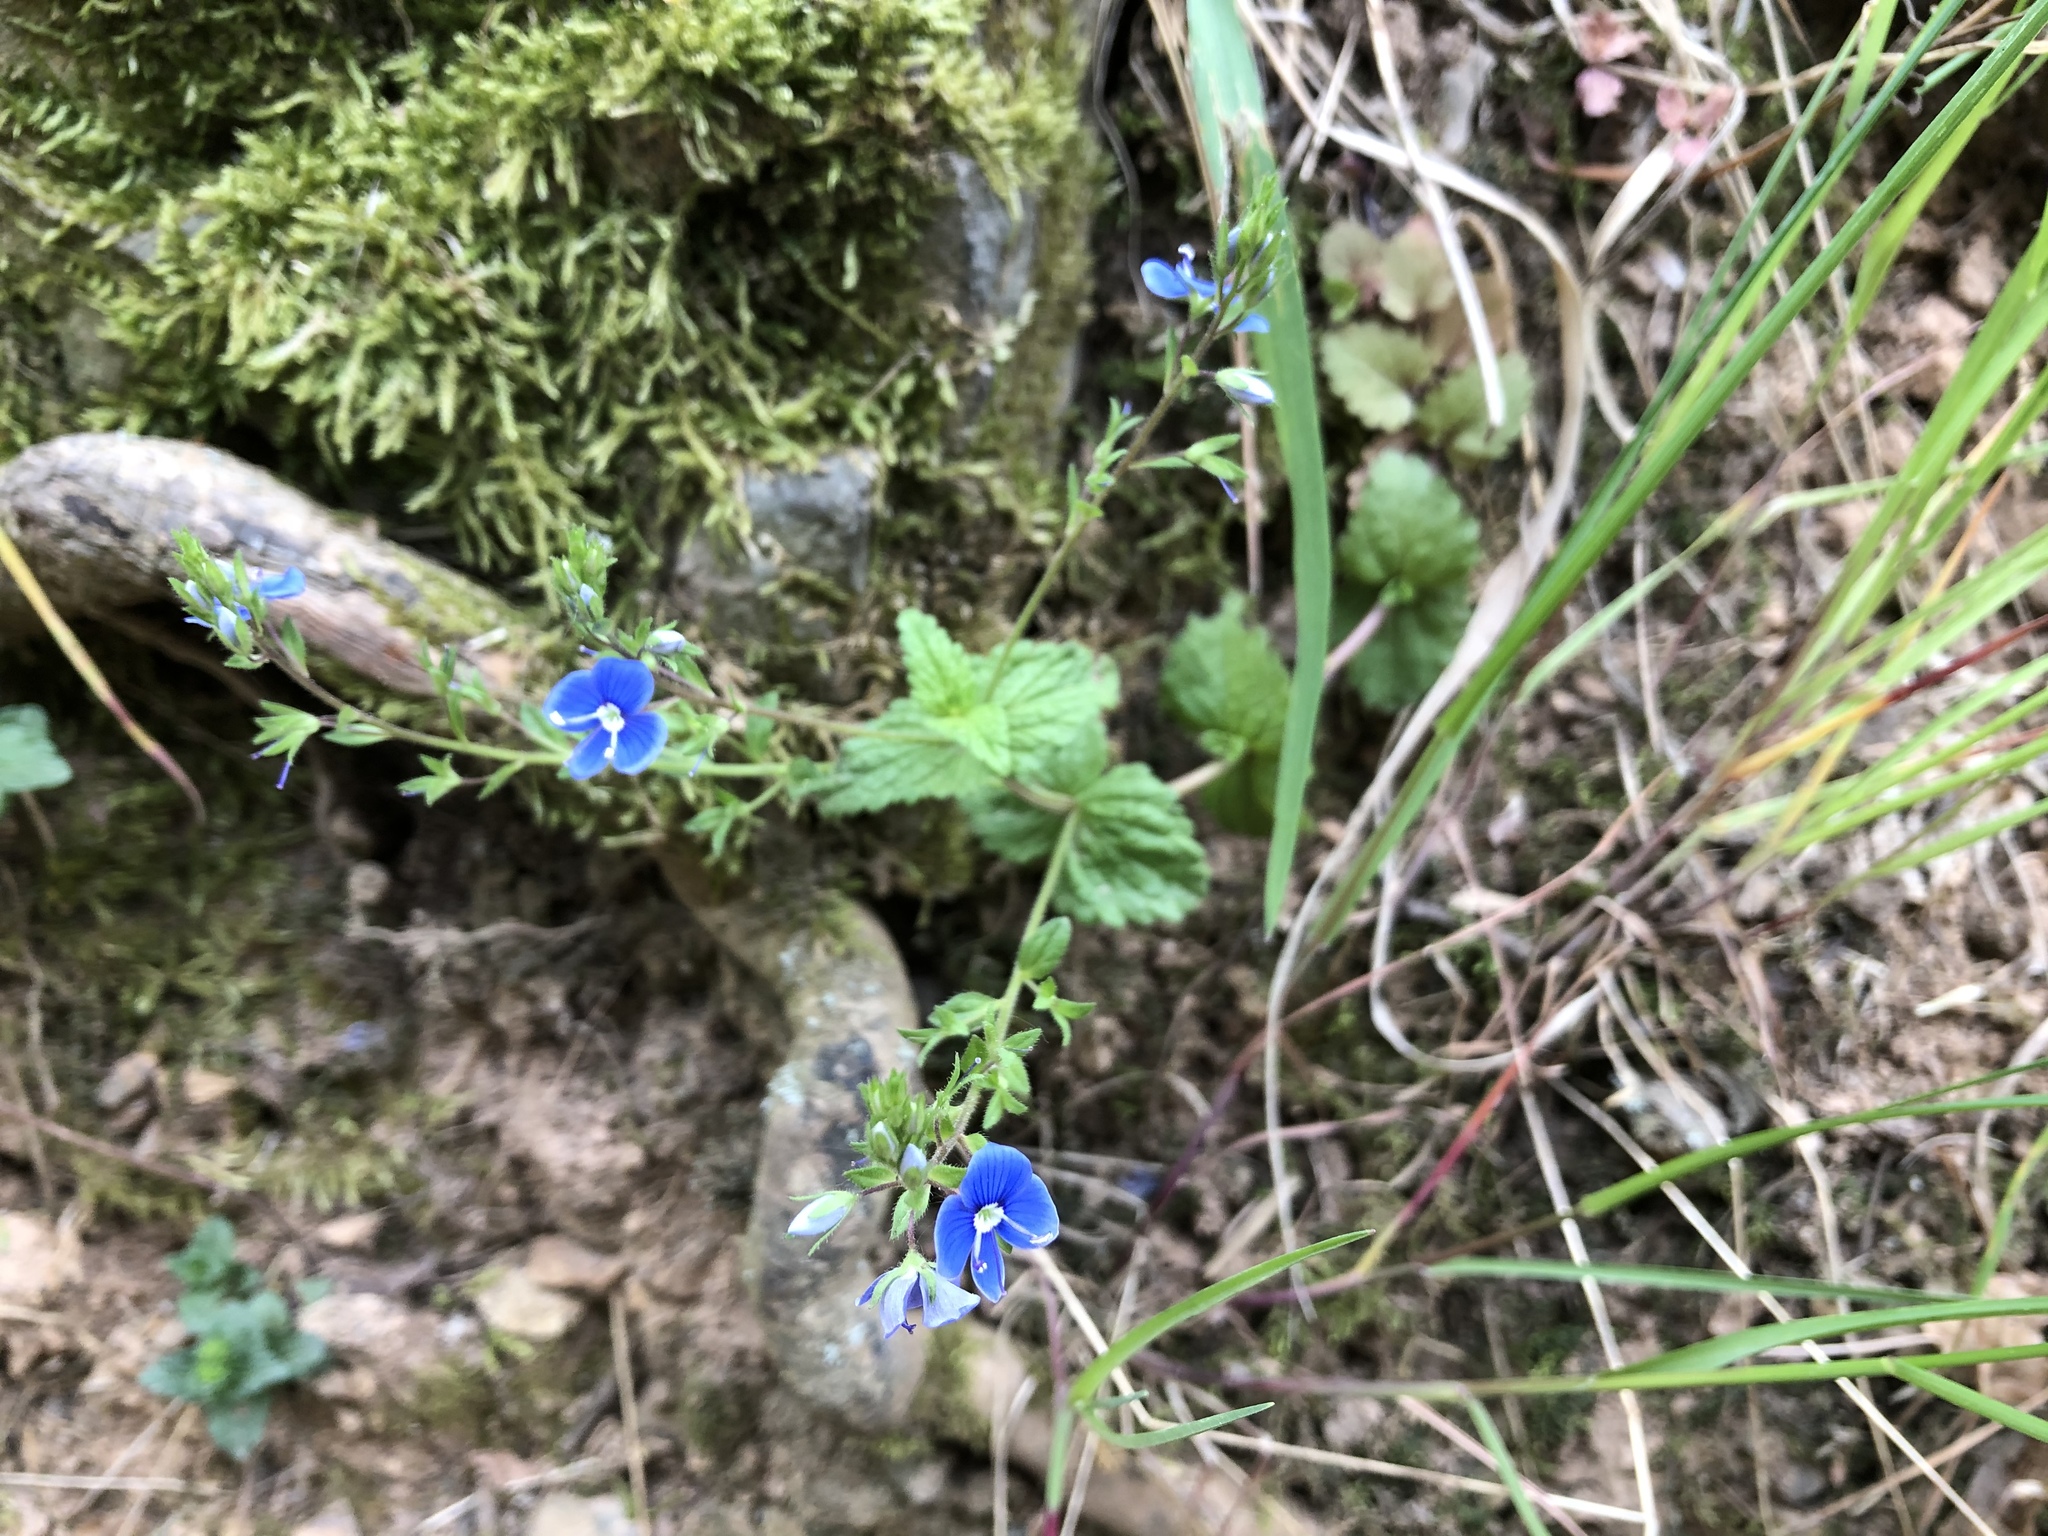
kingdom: Plantae
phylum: Tracheophyta
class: Magnoliopsida
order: Lamiales
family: Plantaginaceae
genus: Veronica
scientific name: Veronica chamaedrys
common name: Germander speedwell
